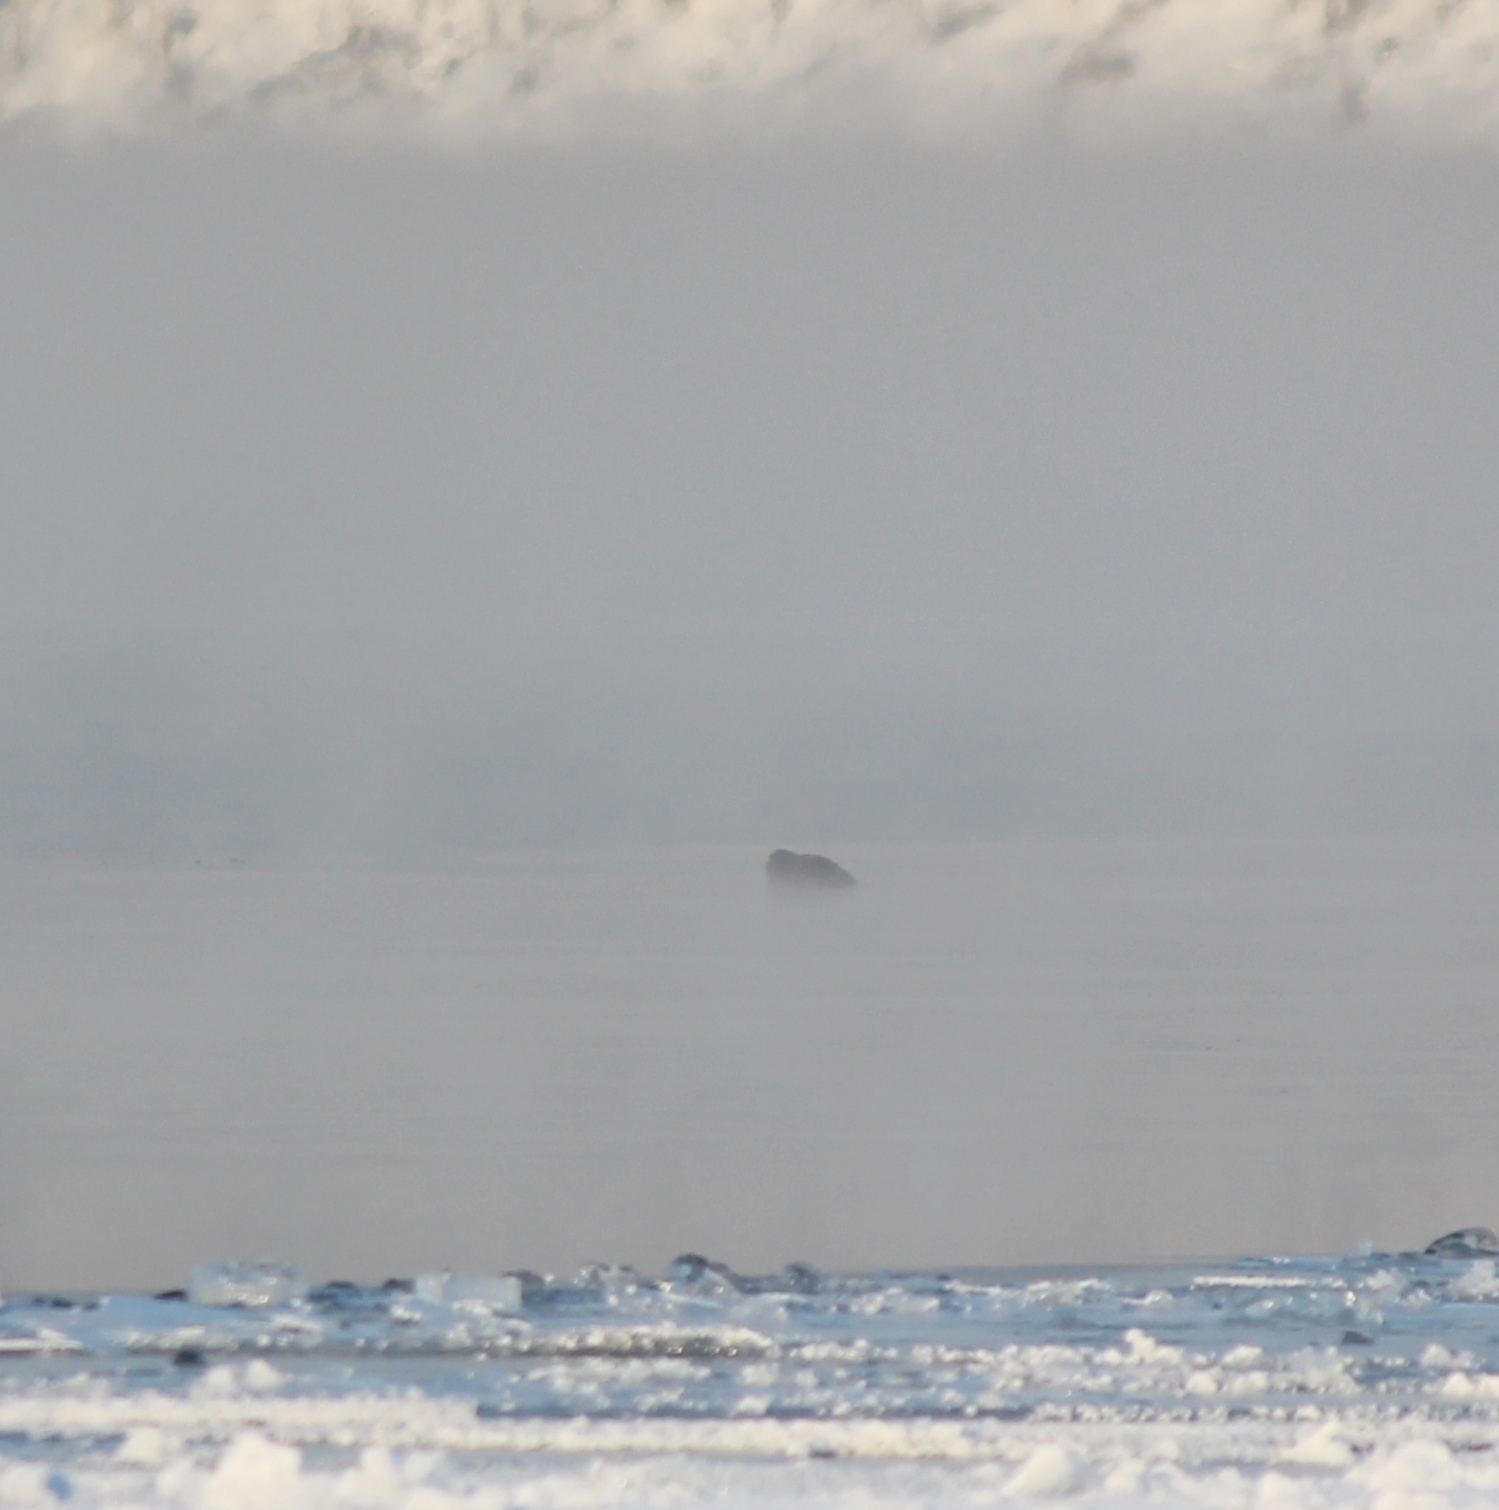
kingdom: Animalia
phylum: Chordata
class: Mammalia
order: Carnivora
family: Phocidae
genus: Pusa
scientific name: Pusa sibirica
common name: Baikal seal
